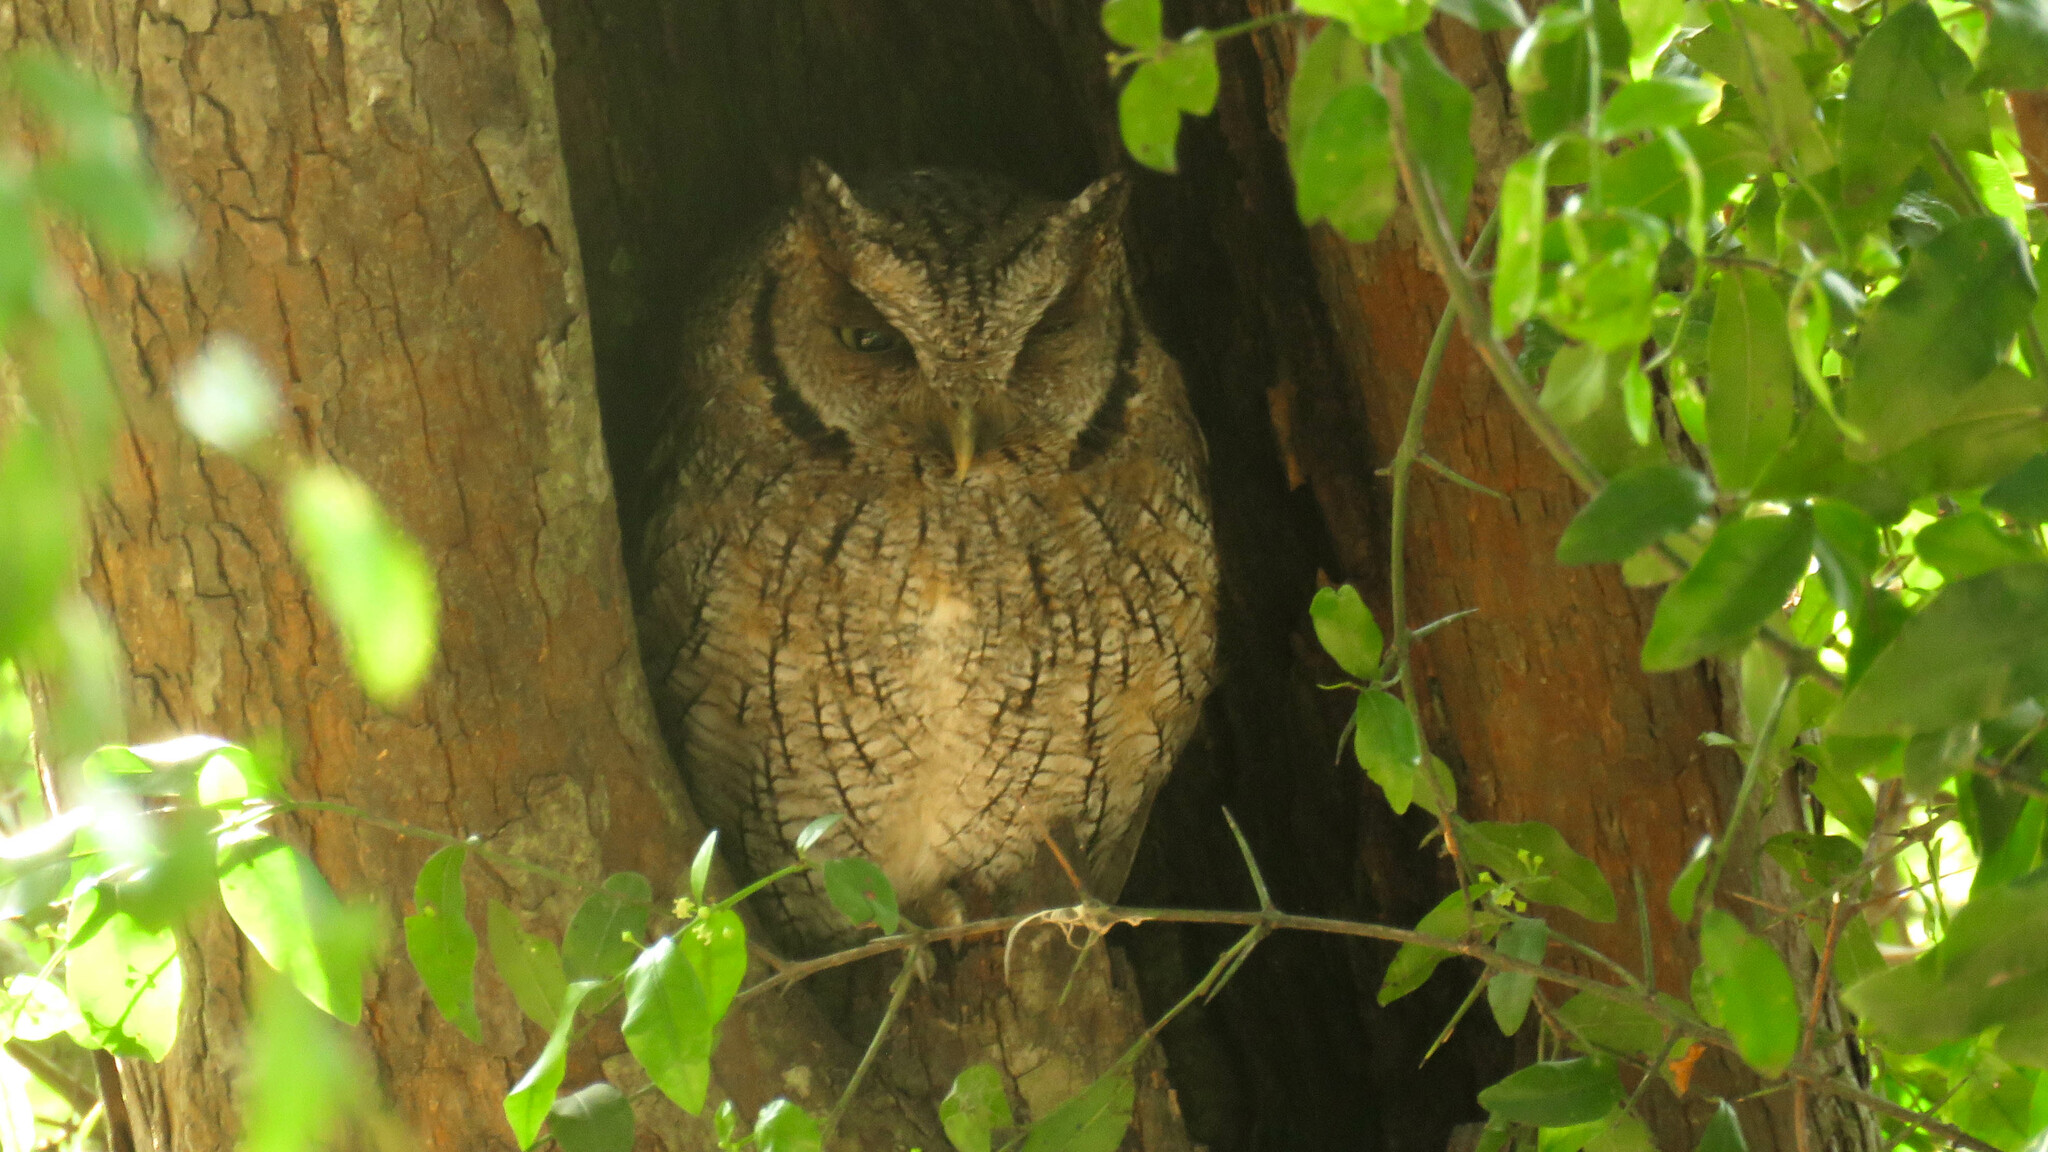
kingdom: Animalia
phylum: Chordata
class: Aves
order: Strigiformes
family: Strigidae
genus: Megascops
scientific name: Megascops choliba
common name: Tropical screech-owl
